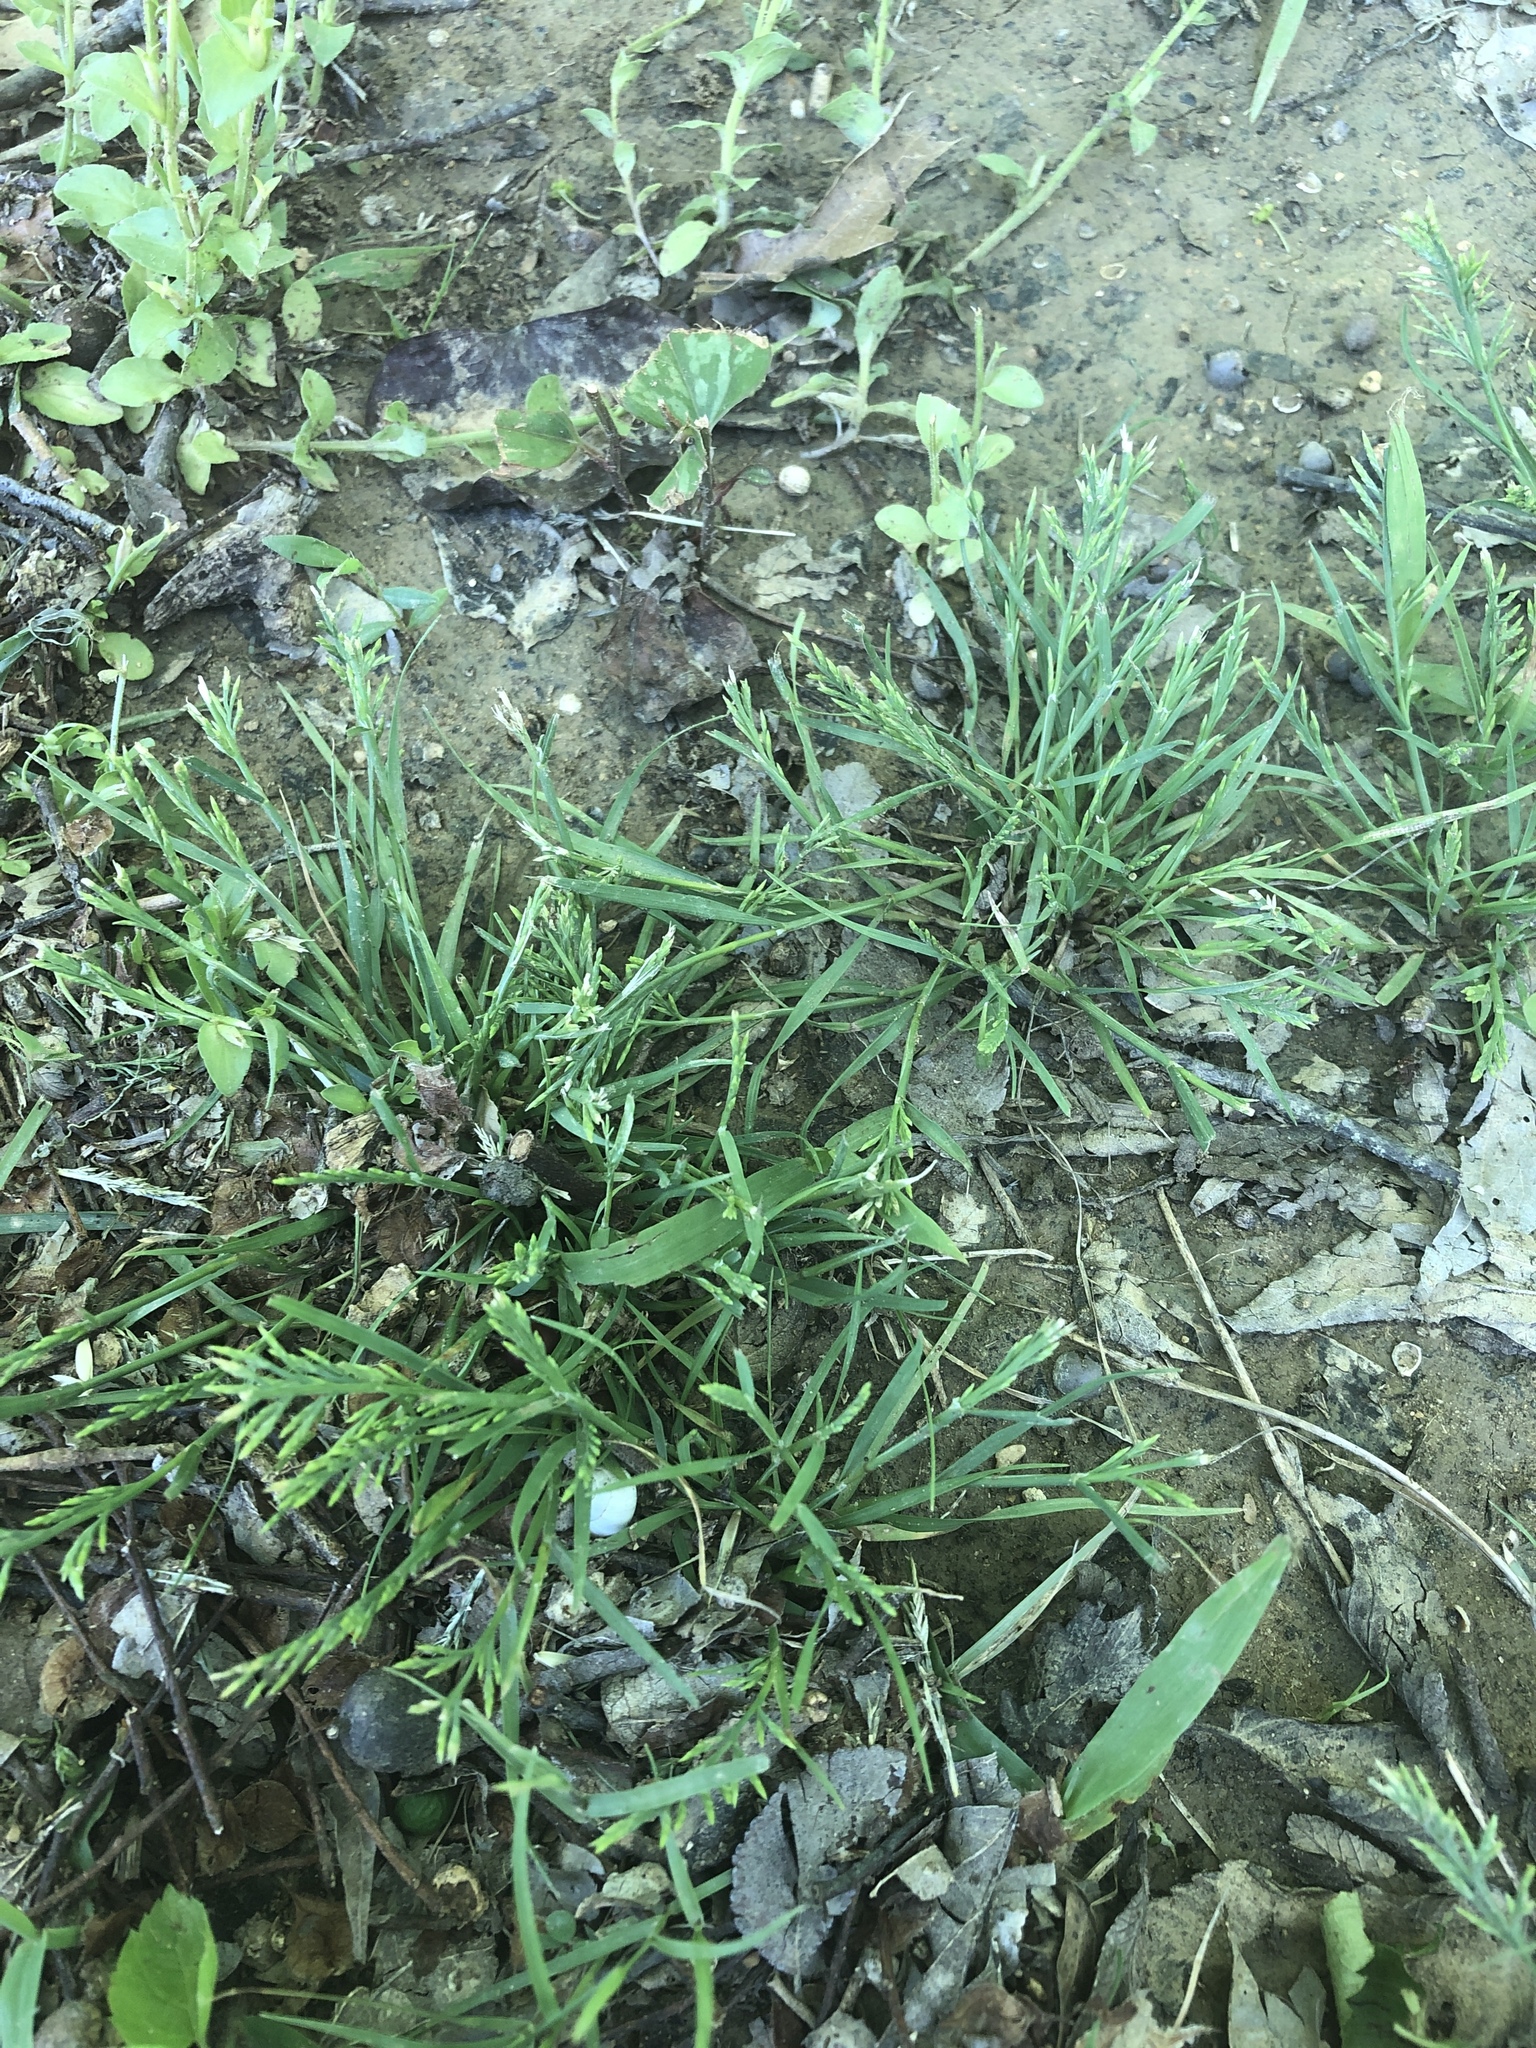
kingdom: Plantae
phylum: Tracheophyta
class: Liliopsida
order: Poales
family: Poaceae
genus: Catapodium
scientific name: Catapodium rigidum
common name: Fern-grass
